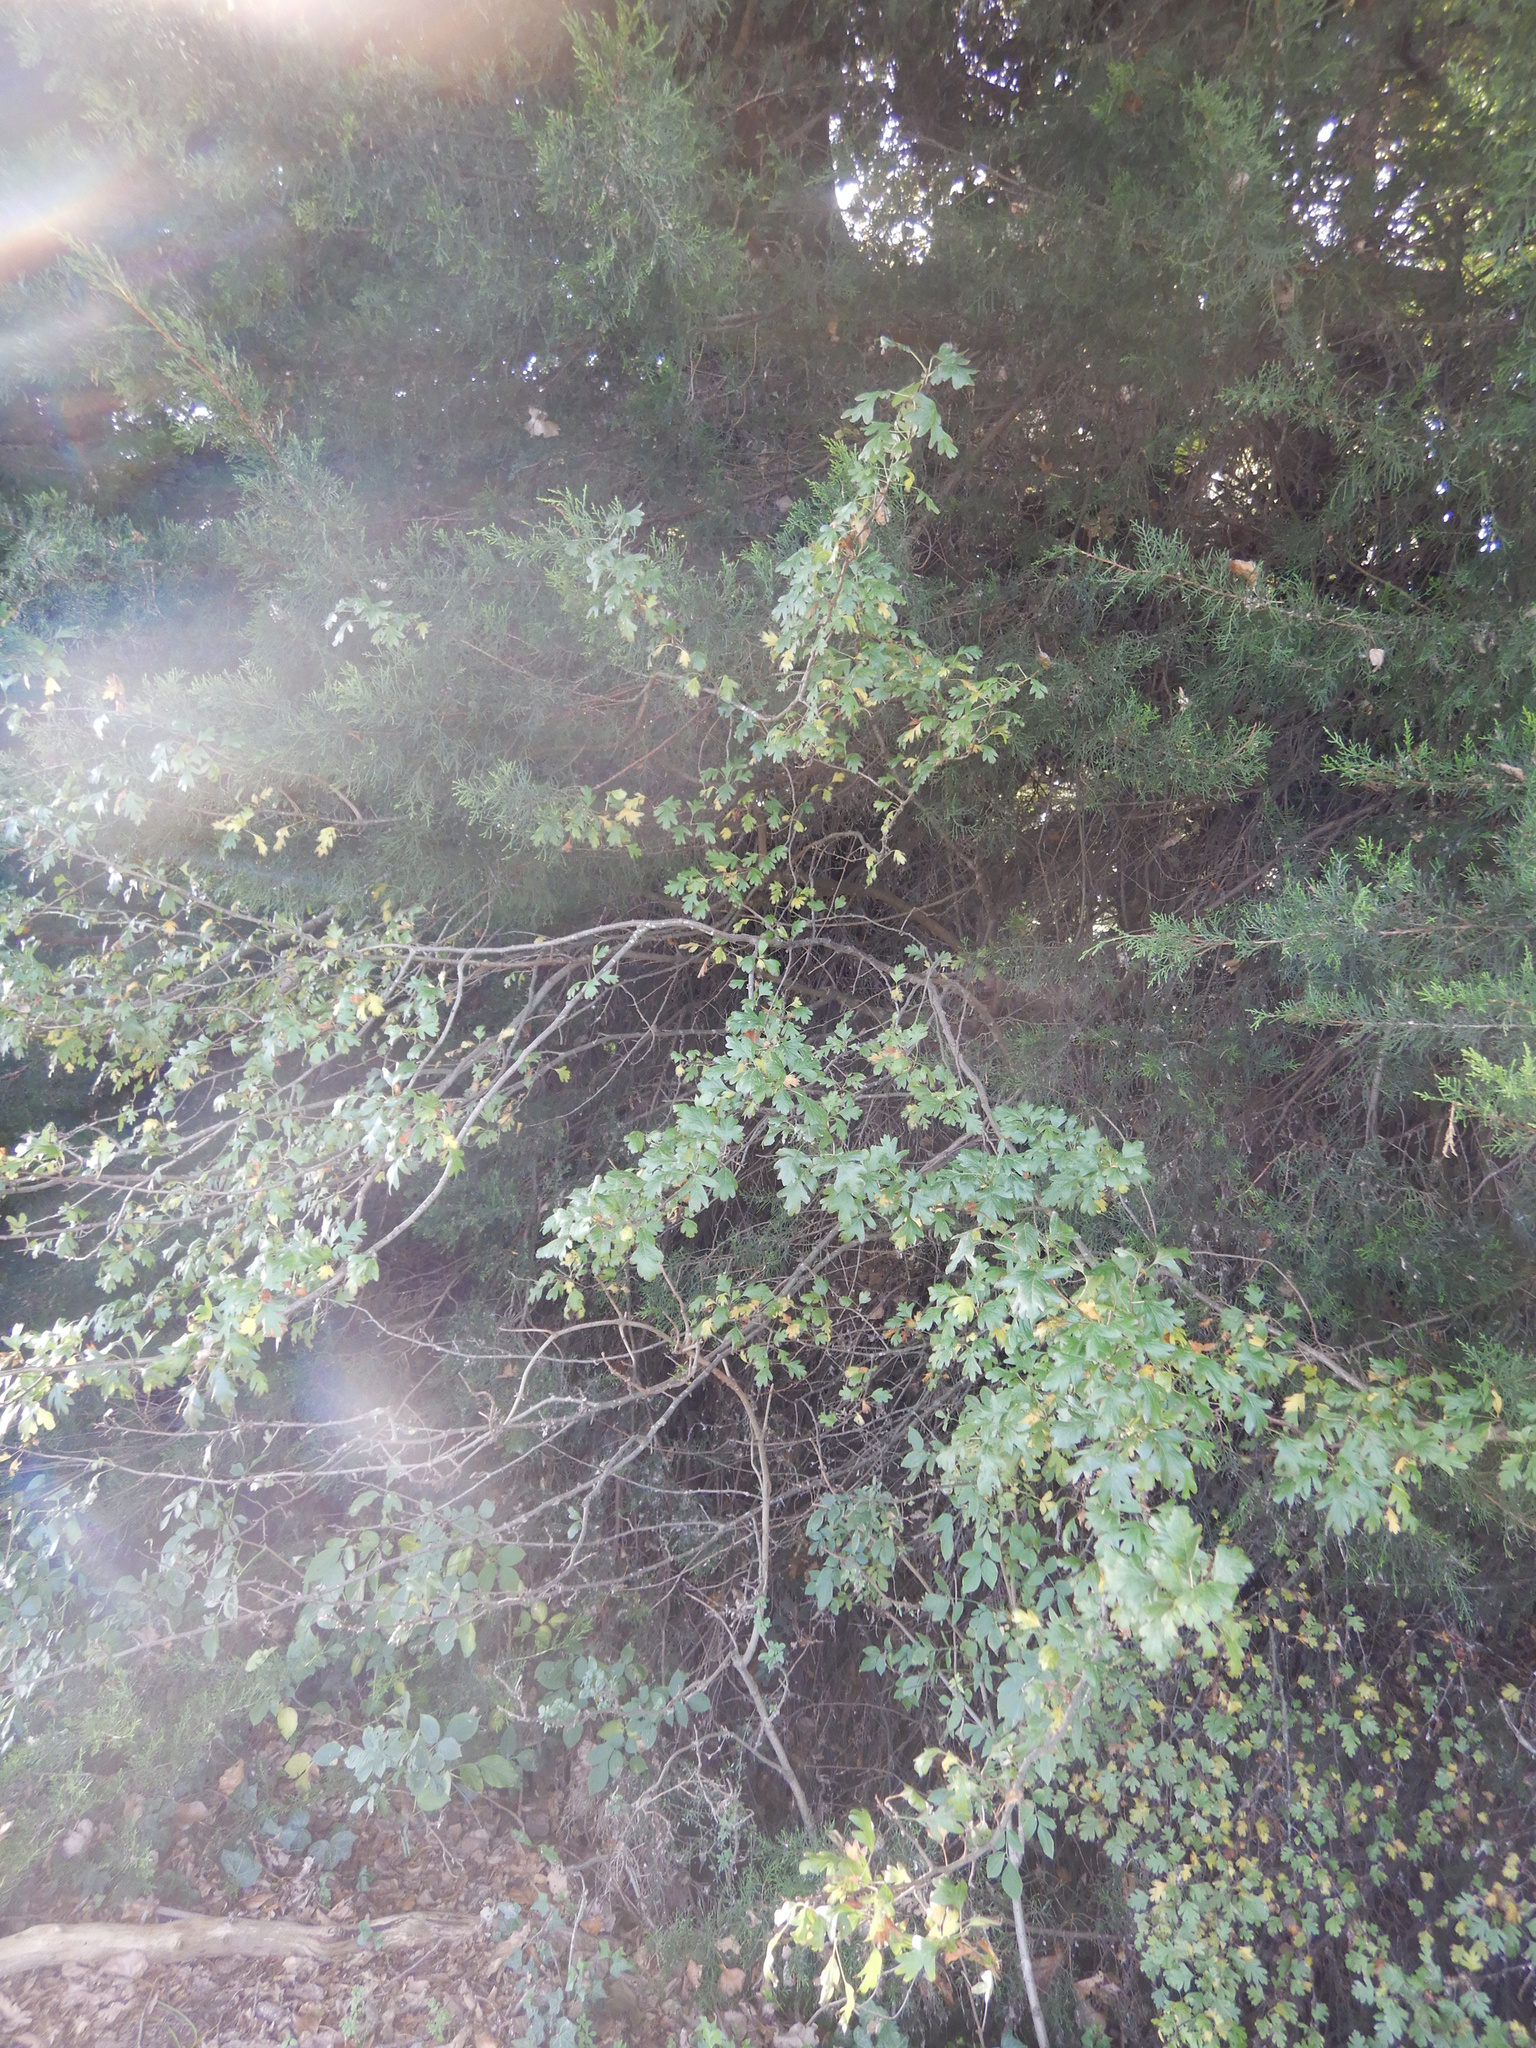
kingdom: Plantae
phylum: Tracheophyta
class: Magnoliopsida
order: Rosales
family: Rosaceae
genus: Crataegus
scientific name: Crataegus monogyna
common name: Hawthorn
